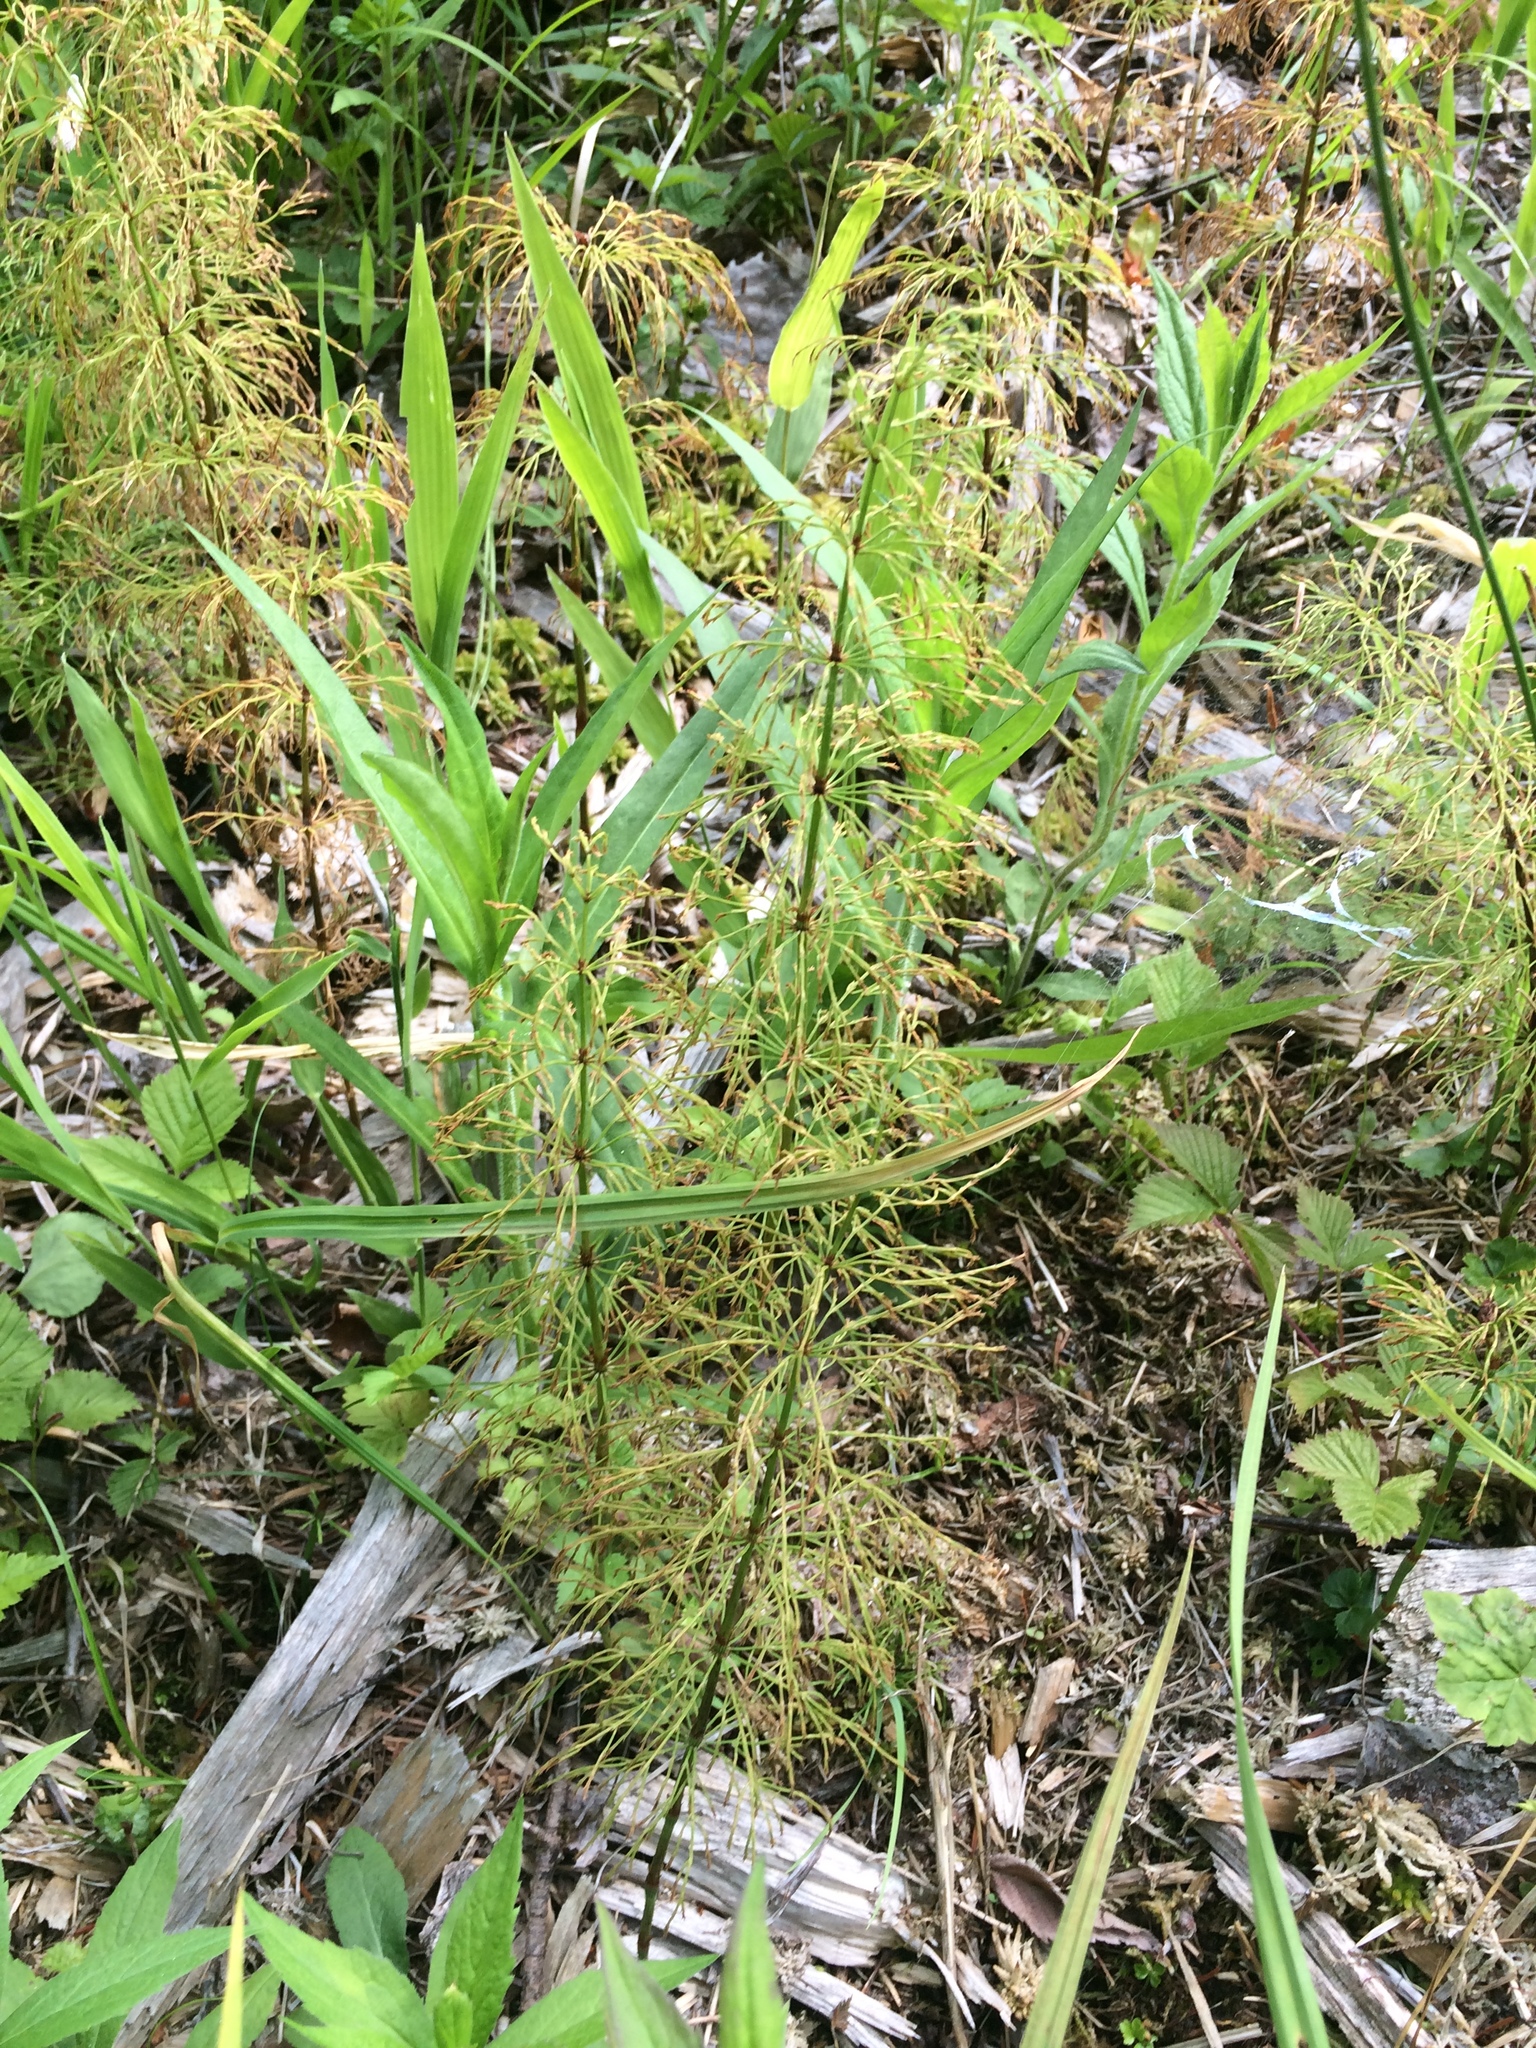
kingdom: Plantae
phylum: Tracheophyta
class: Polypodiopsida
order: Equisetales
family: Equisetaceae
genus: Equisetum
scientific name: Equisetum sylvaticum
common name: Wood horsetail
